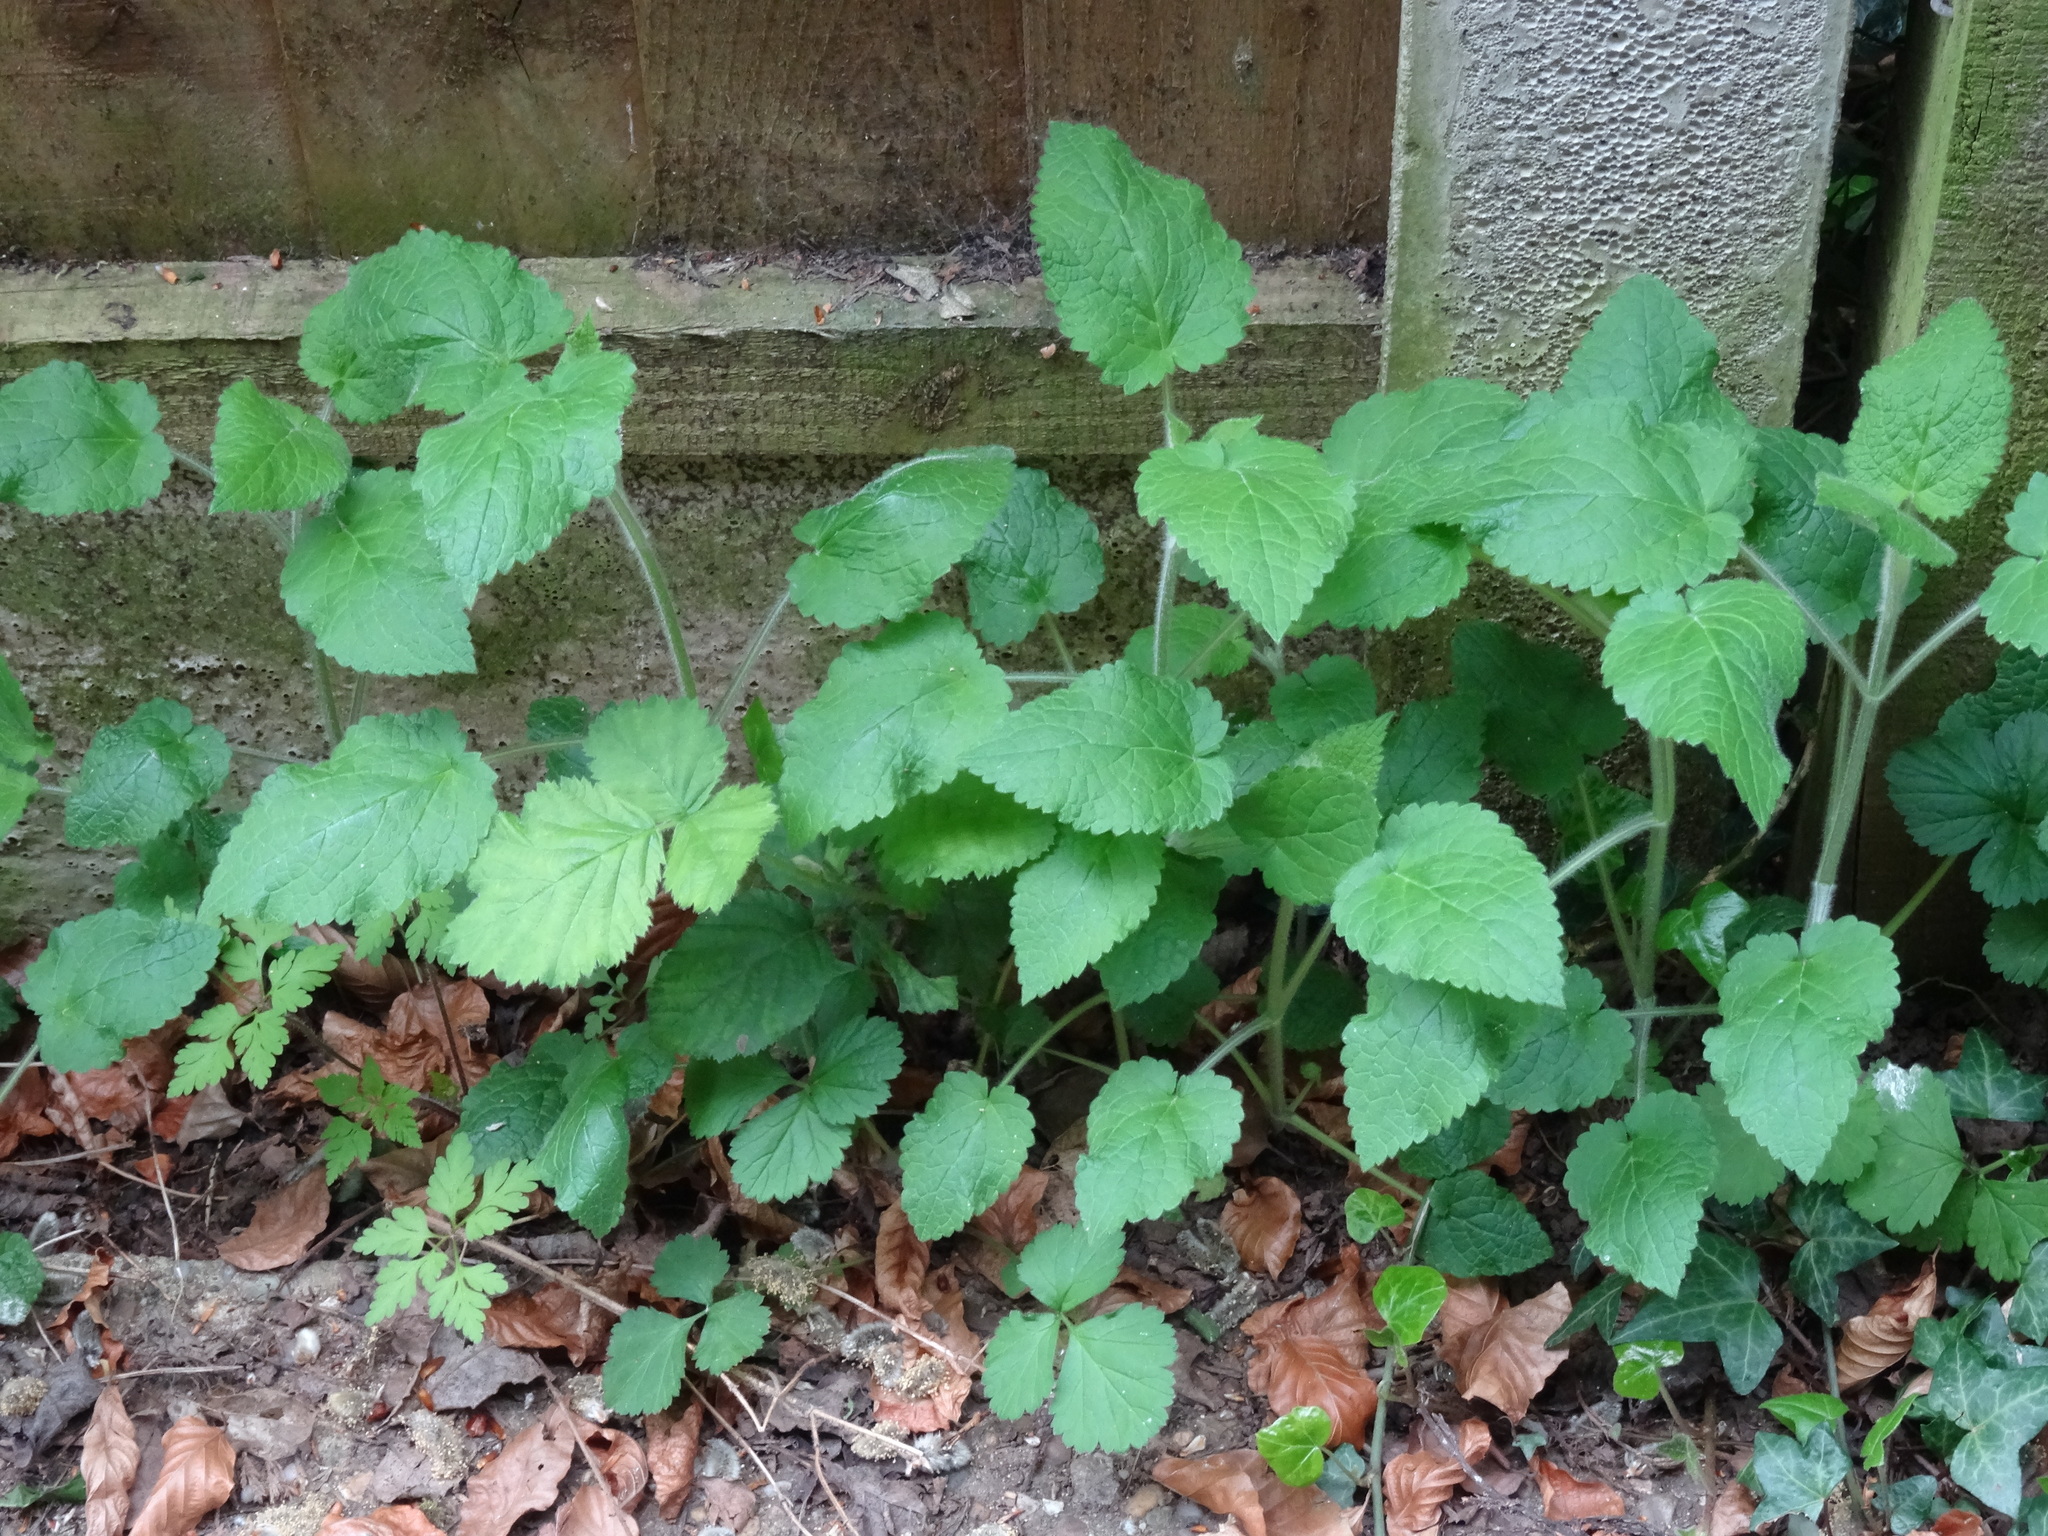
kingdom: Plantae
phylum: Tracheophyta
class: Magnoliopsida
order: Lamiales
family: Lamiaceae
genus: Stachys
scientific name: Stachys sylvatica
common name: Hedge woundwort
